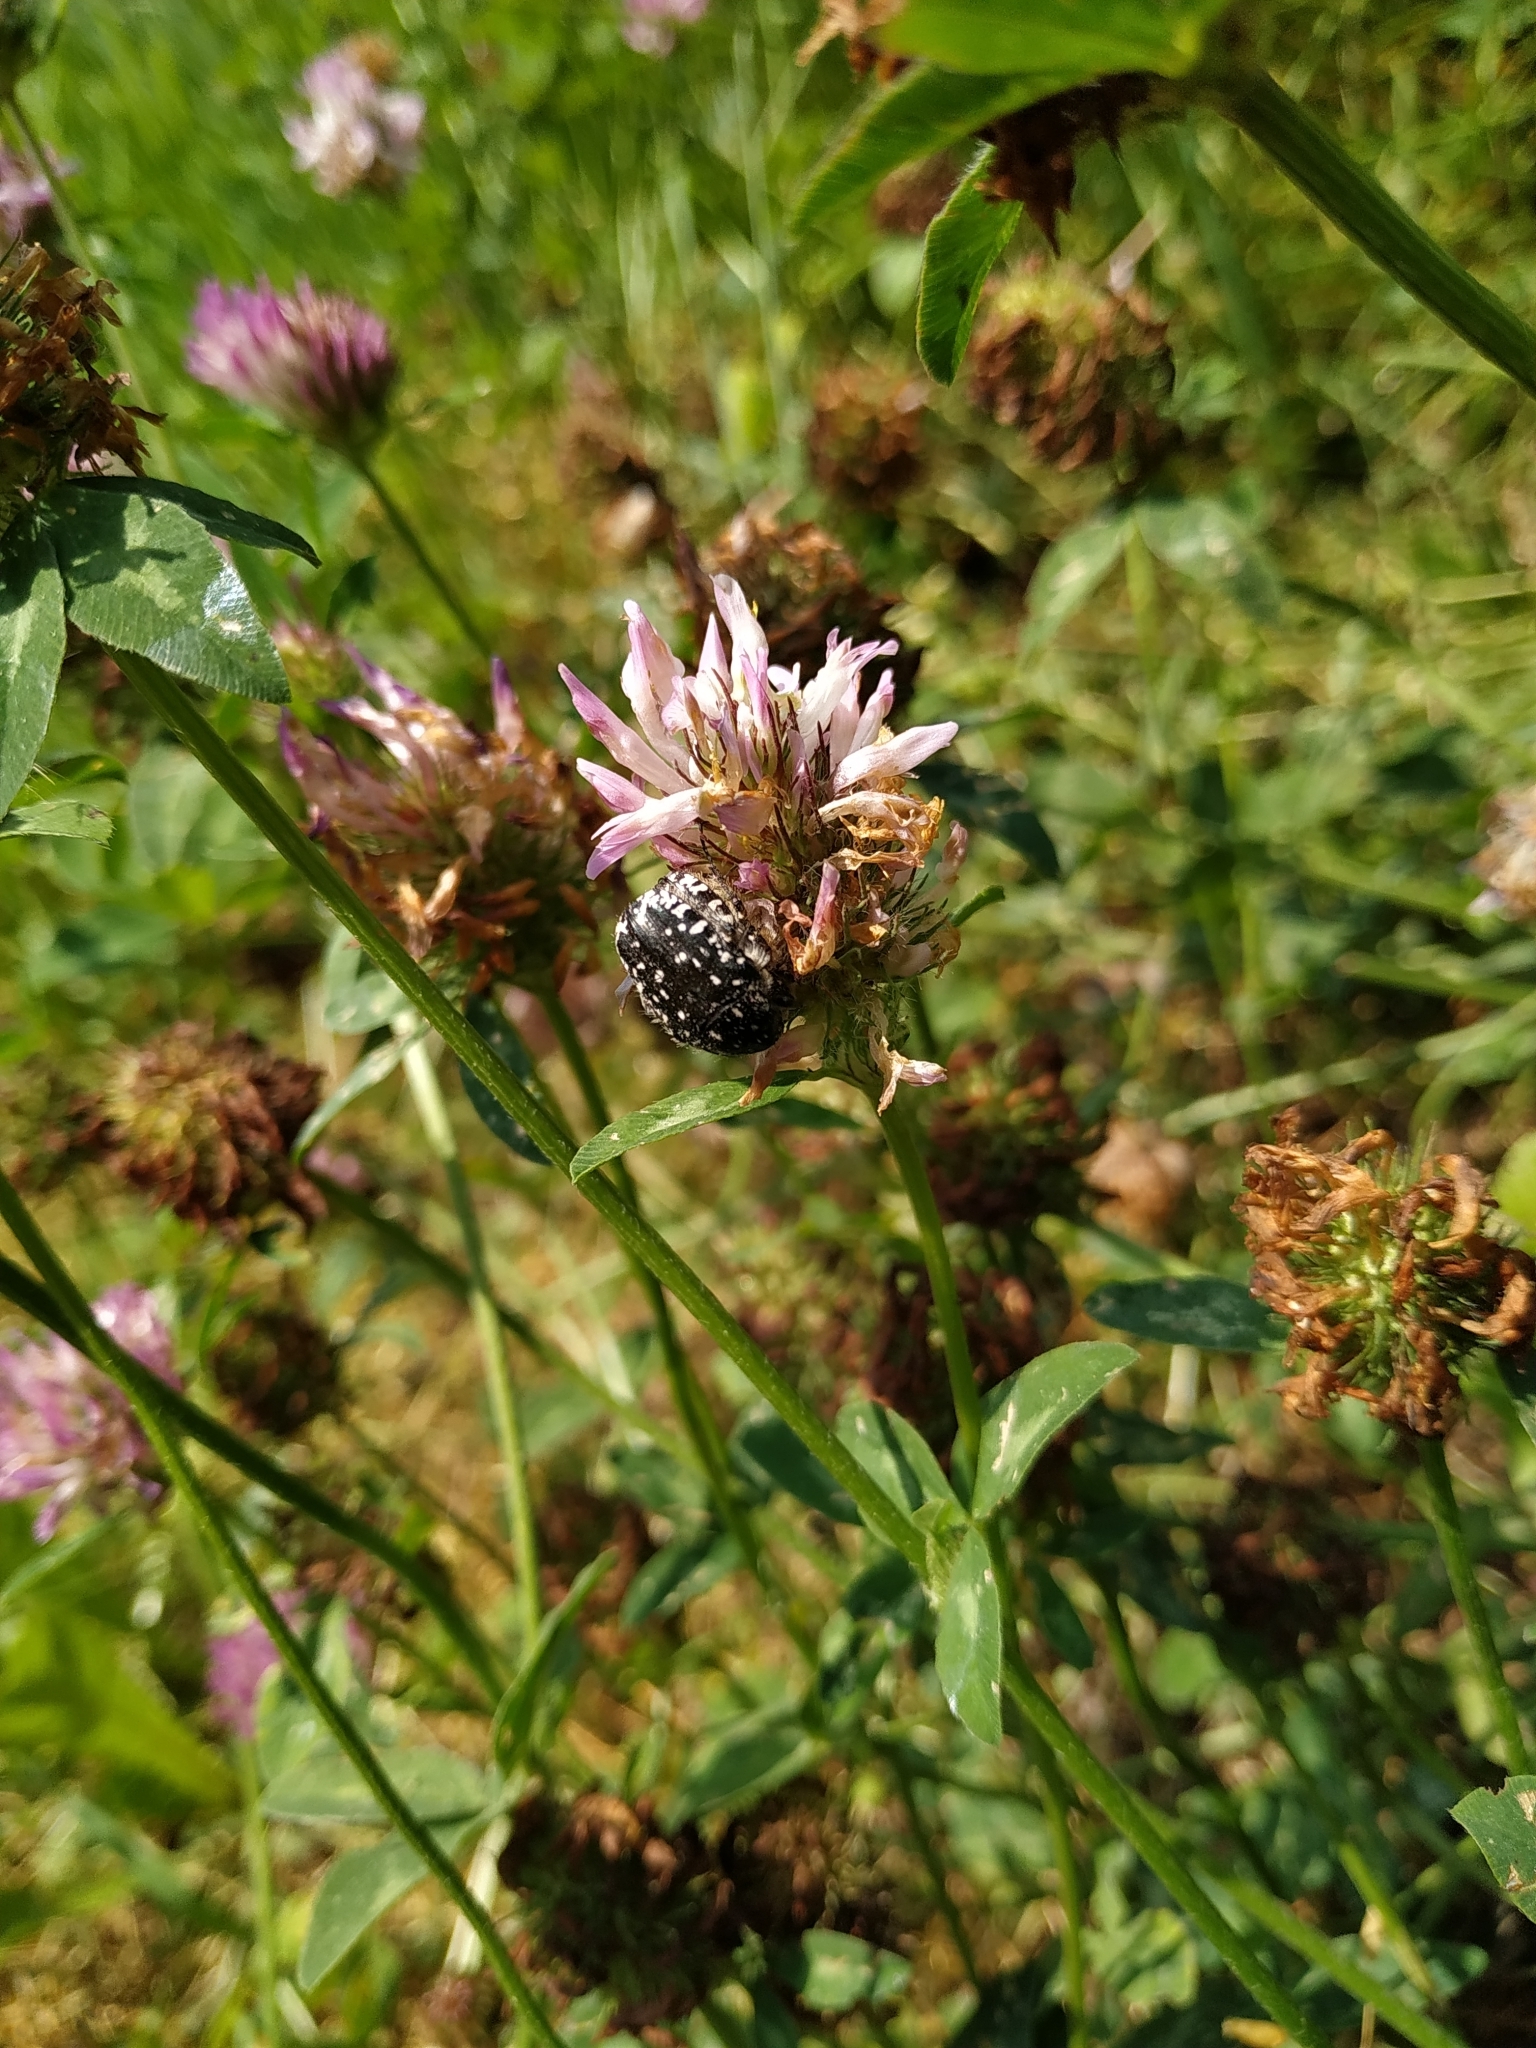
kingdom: Animalia
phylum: Arthropoda
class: Insecta
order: Coleoptera
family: Scarabaeidae
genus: Oxythyrea
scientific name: Oxythyrea funesta
